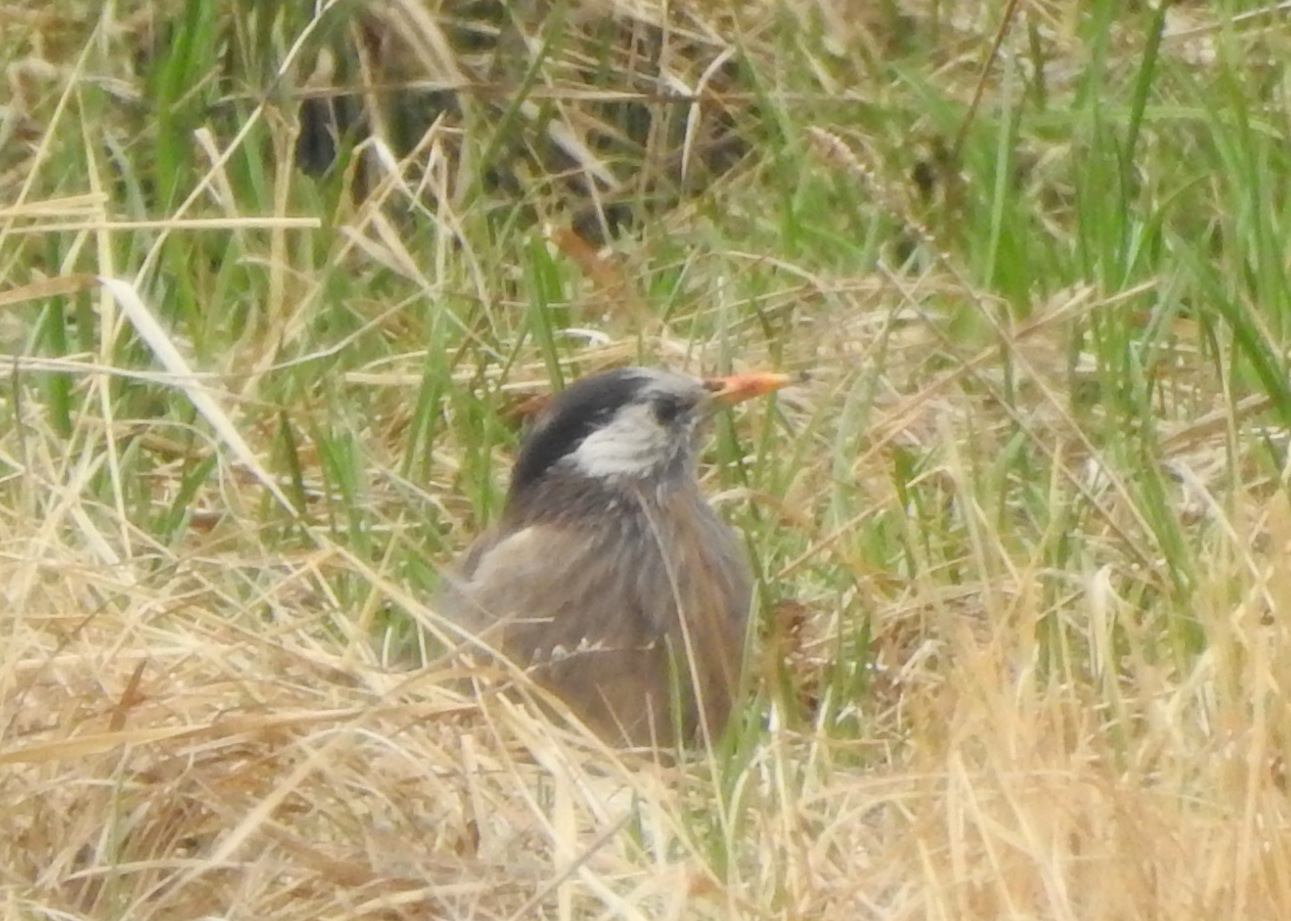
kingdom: Animalia
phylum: Chordata
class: Aves
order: Passeriformes
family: Sturnidae
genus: Spodiopsar
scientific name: Spodiopsar cineraceus
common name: White-cheeked starling
